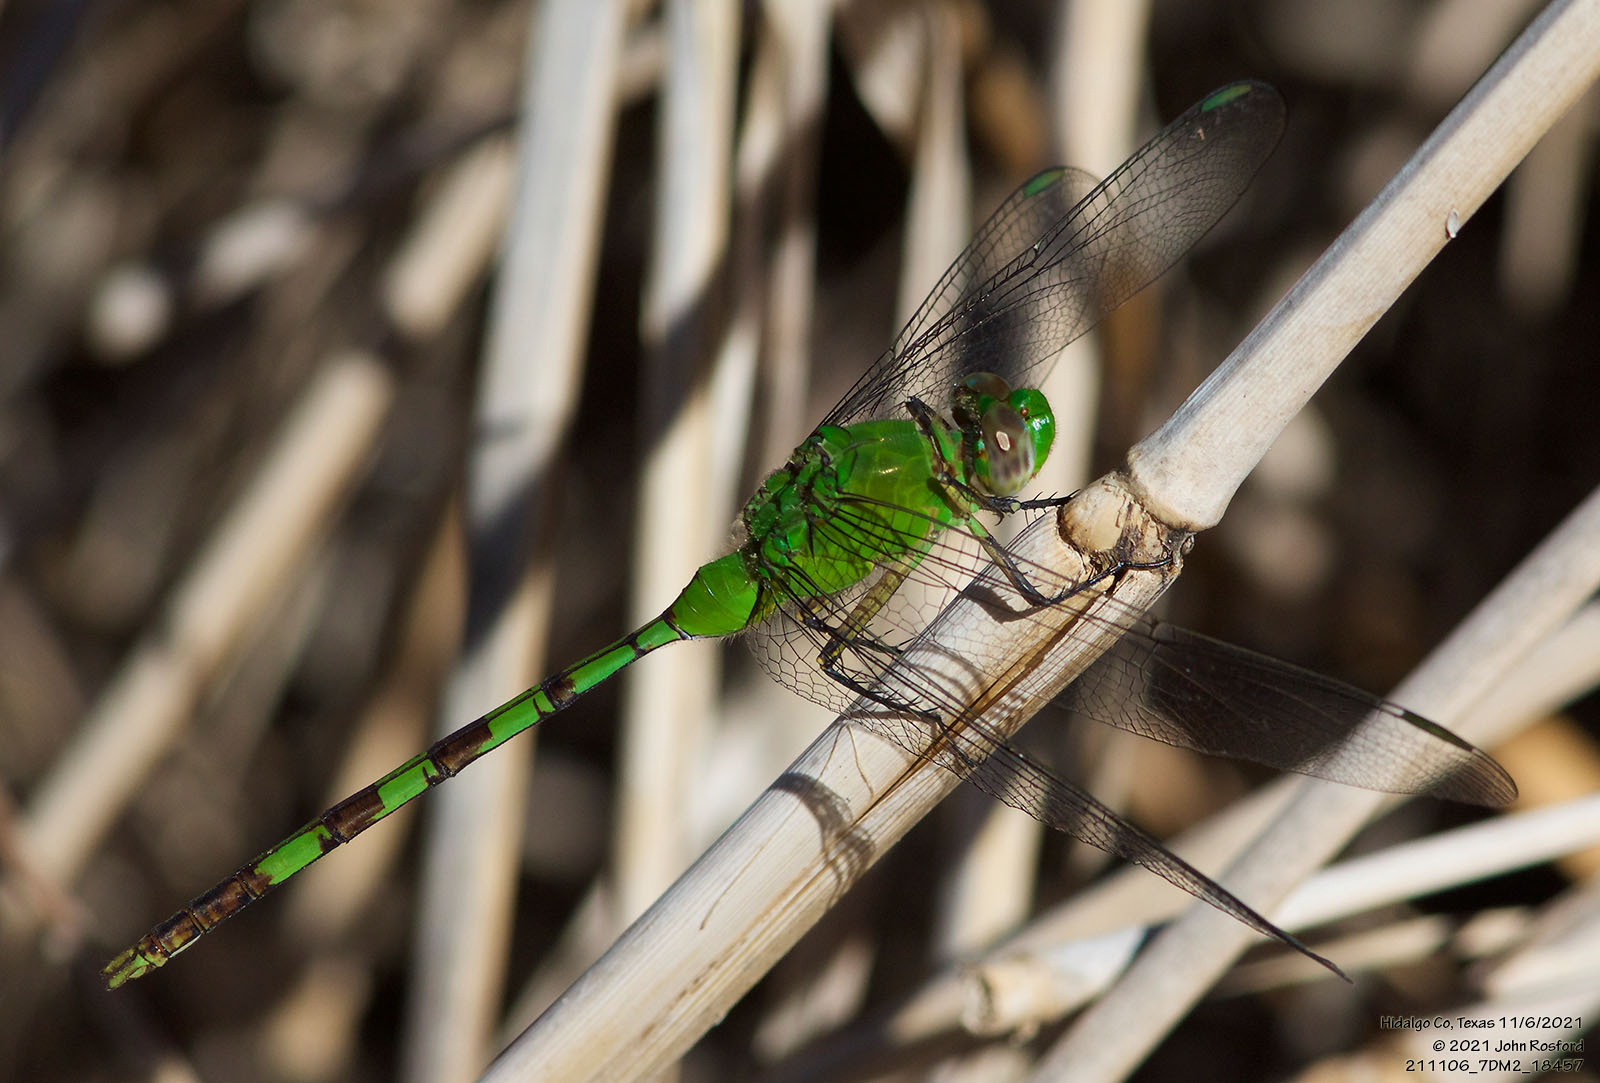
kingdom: Animalia
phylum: Arthropoda
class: Insecta
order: Odonata
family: Libellulidae
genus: Erythemis
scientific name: Erythemis vesiculosa
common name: Great pondhawk
